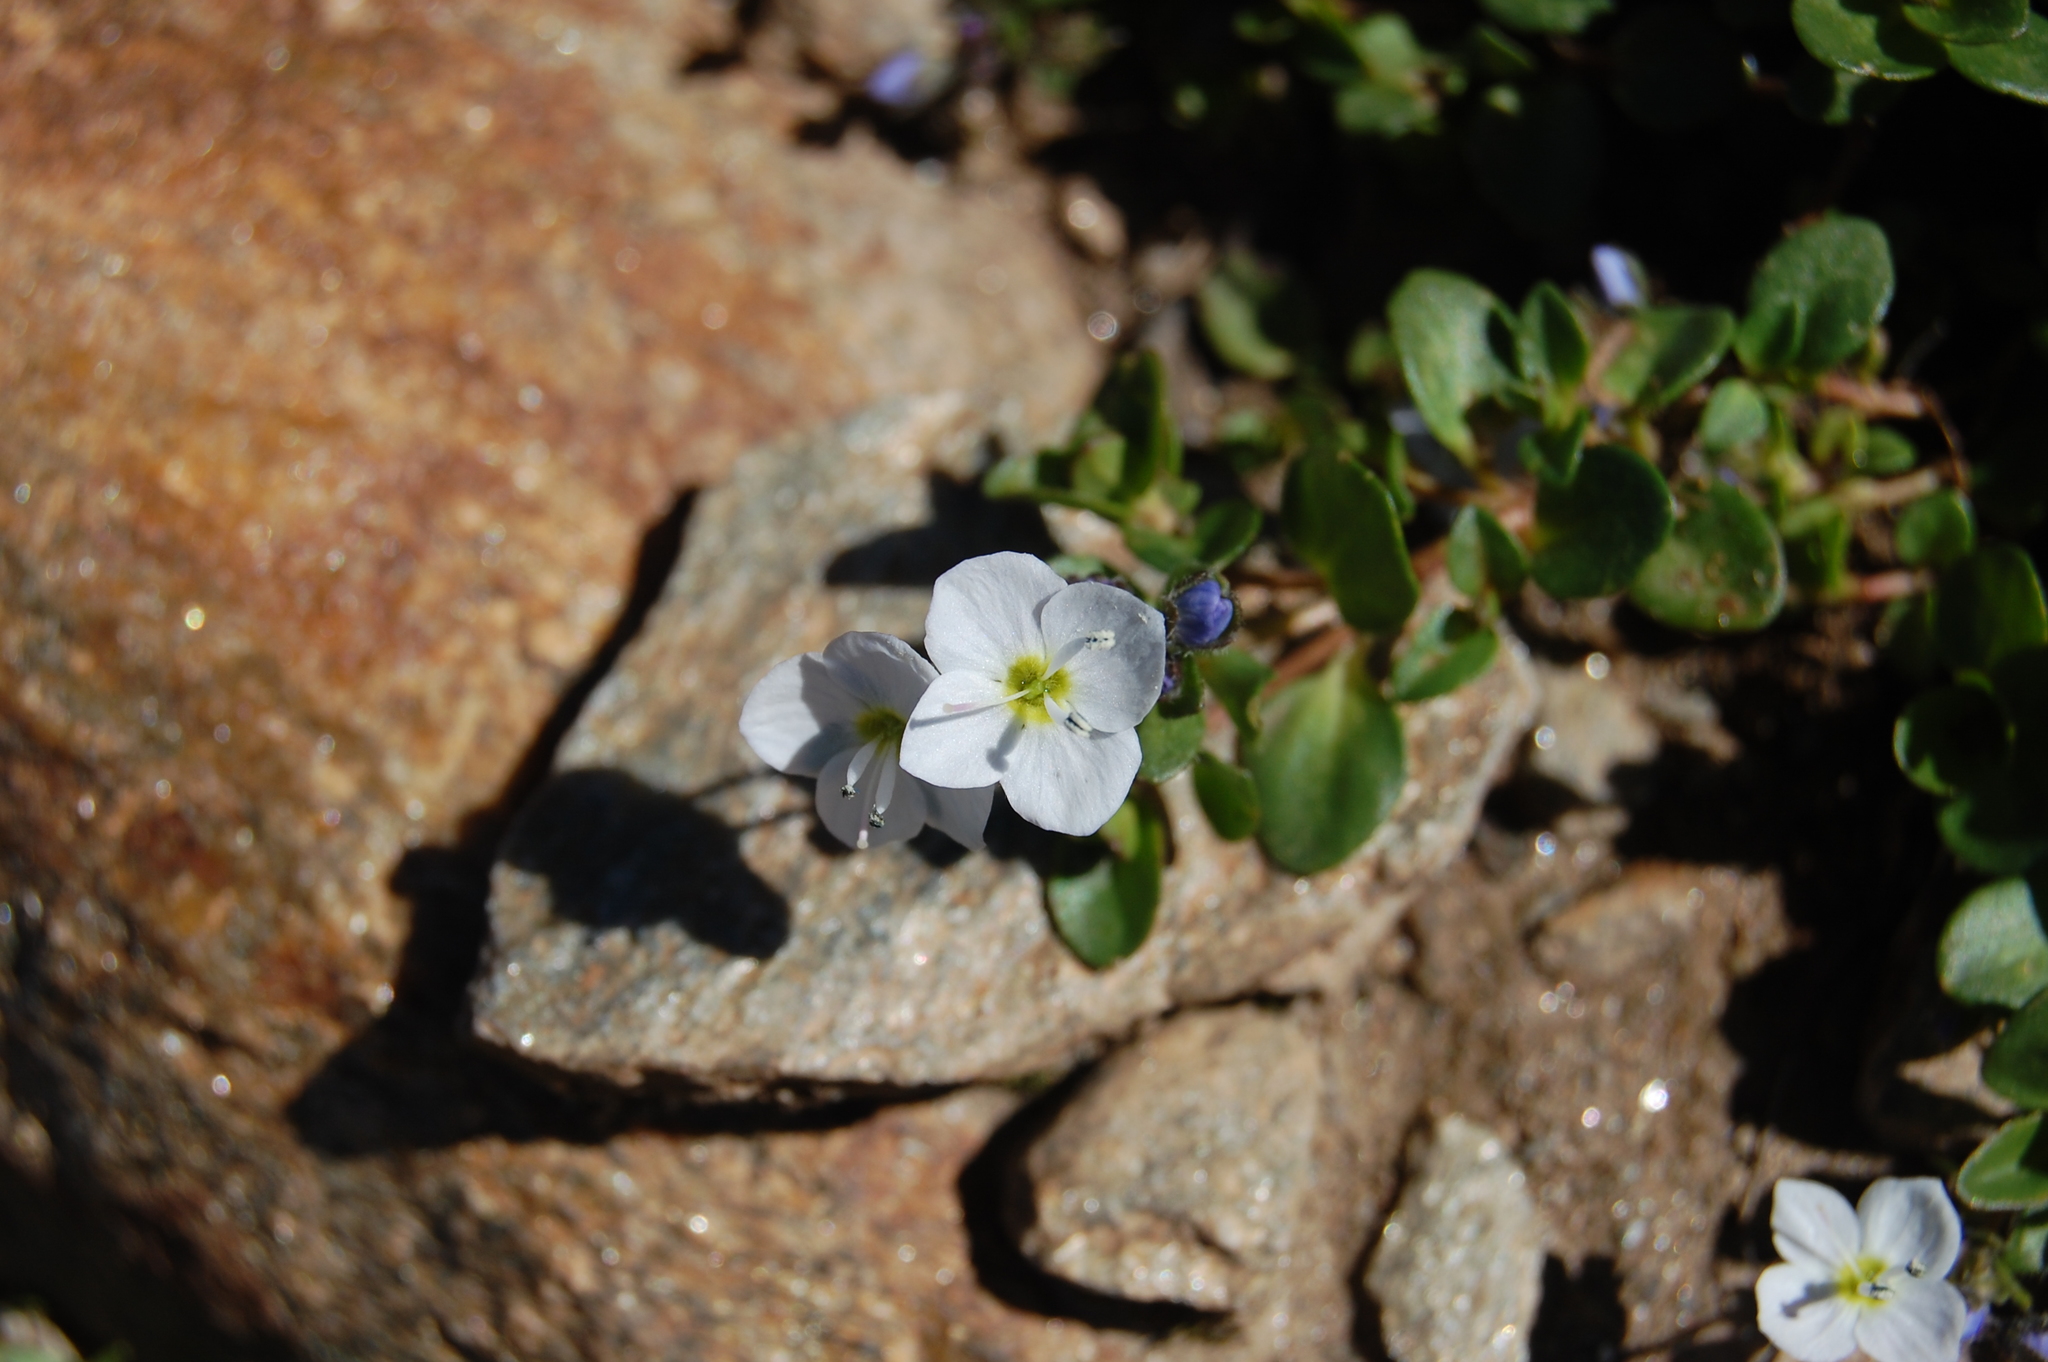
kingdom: Plantae
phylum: Tracheophyta
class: Magnoliopsida
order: Lamiales
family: Plantaginaceae
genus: Veronica
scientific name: Veronica telephiifolia
